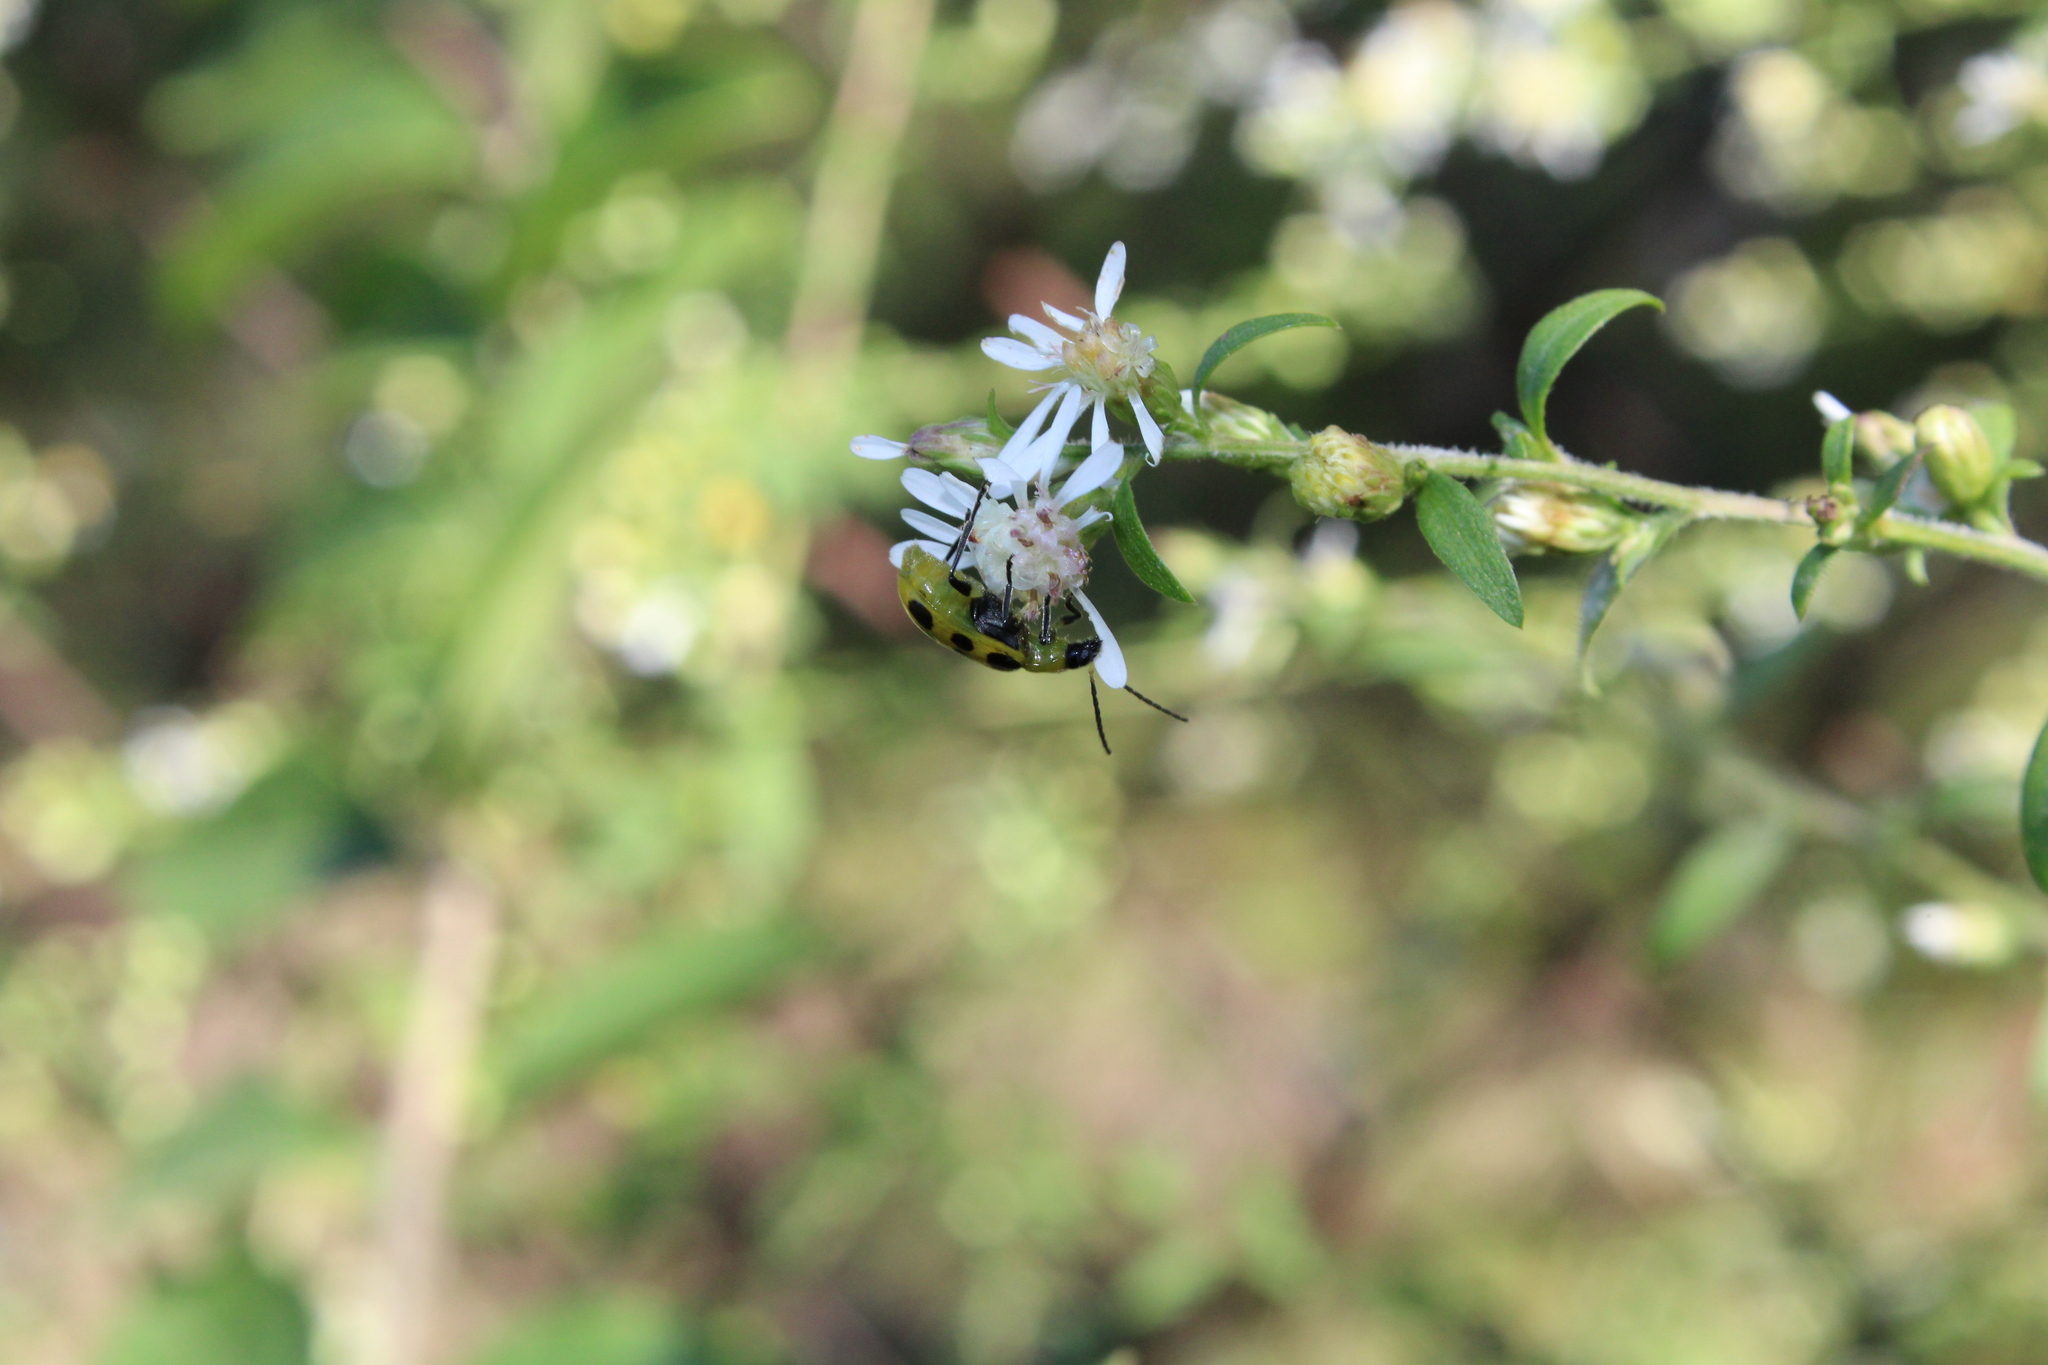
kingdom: Animalia
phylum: Arthropoda
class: Insecta
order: Coleoptera
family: Chrysomelidae
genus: Diabrotica
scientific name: Diabrotica undecimpunctata
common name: Spotted cucumber beetle
